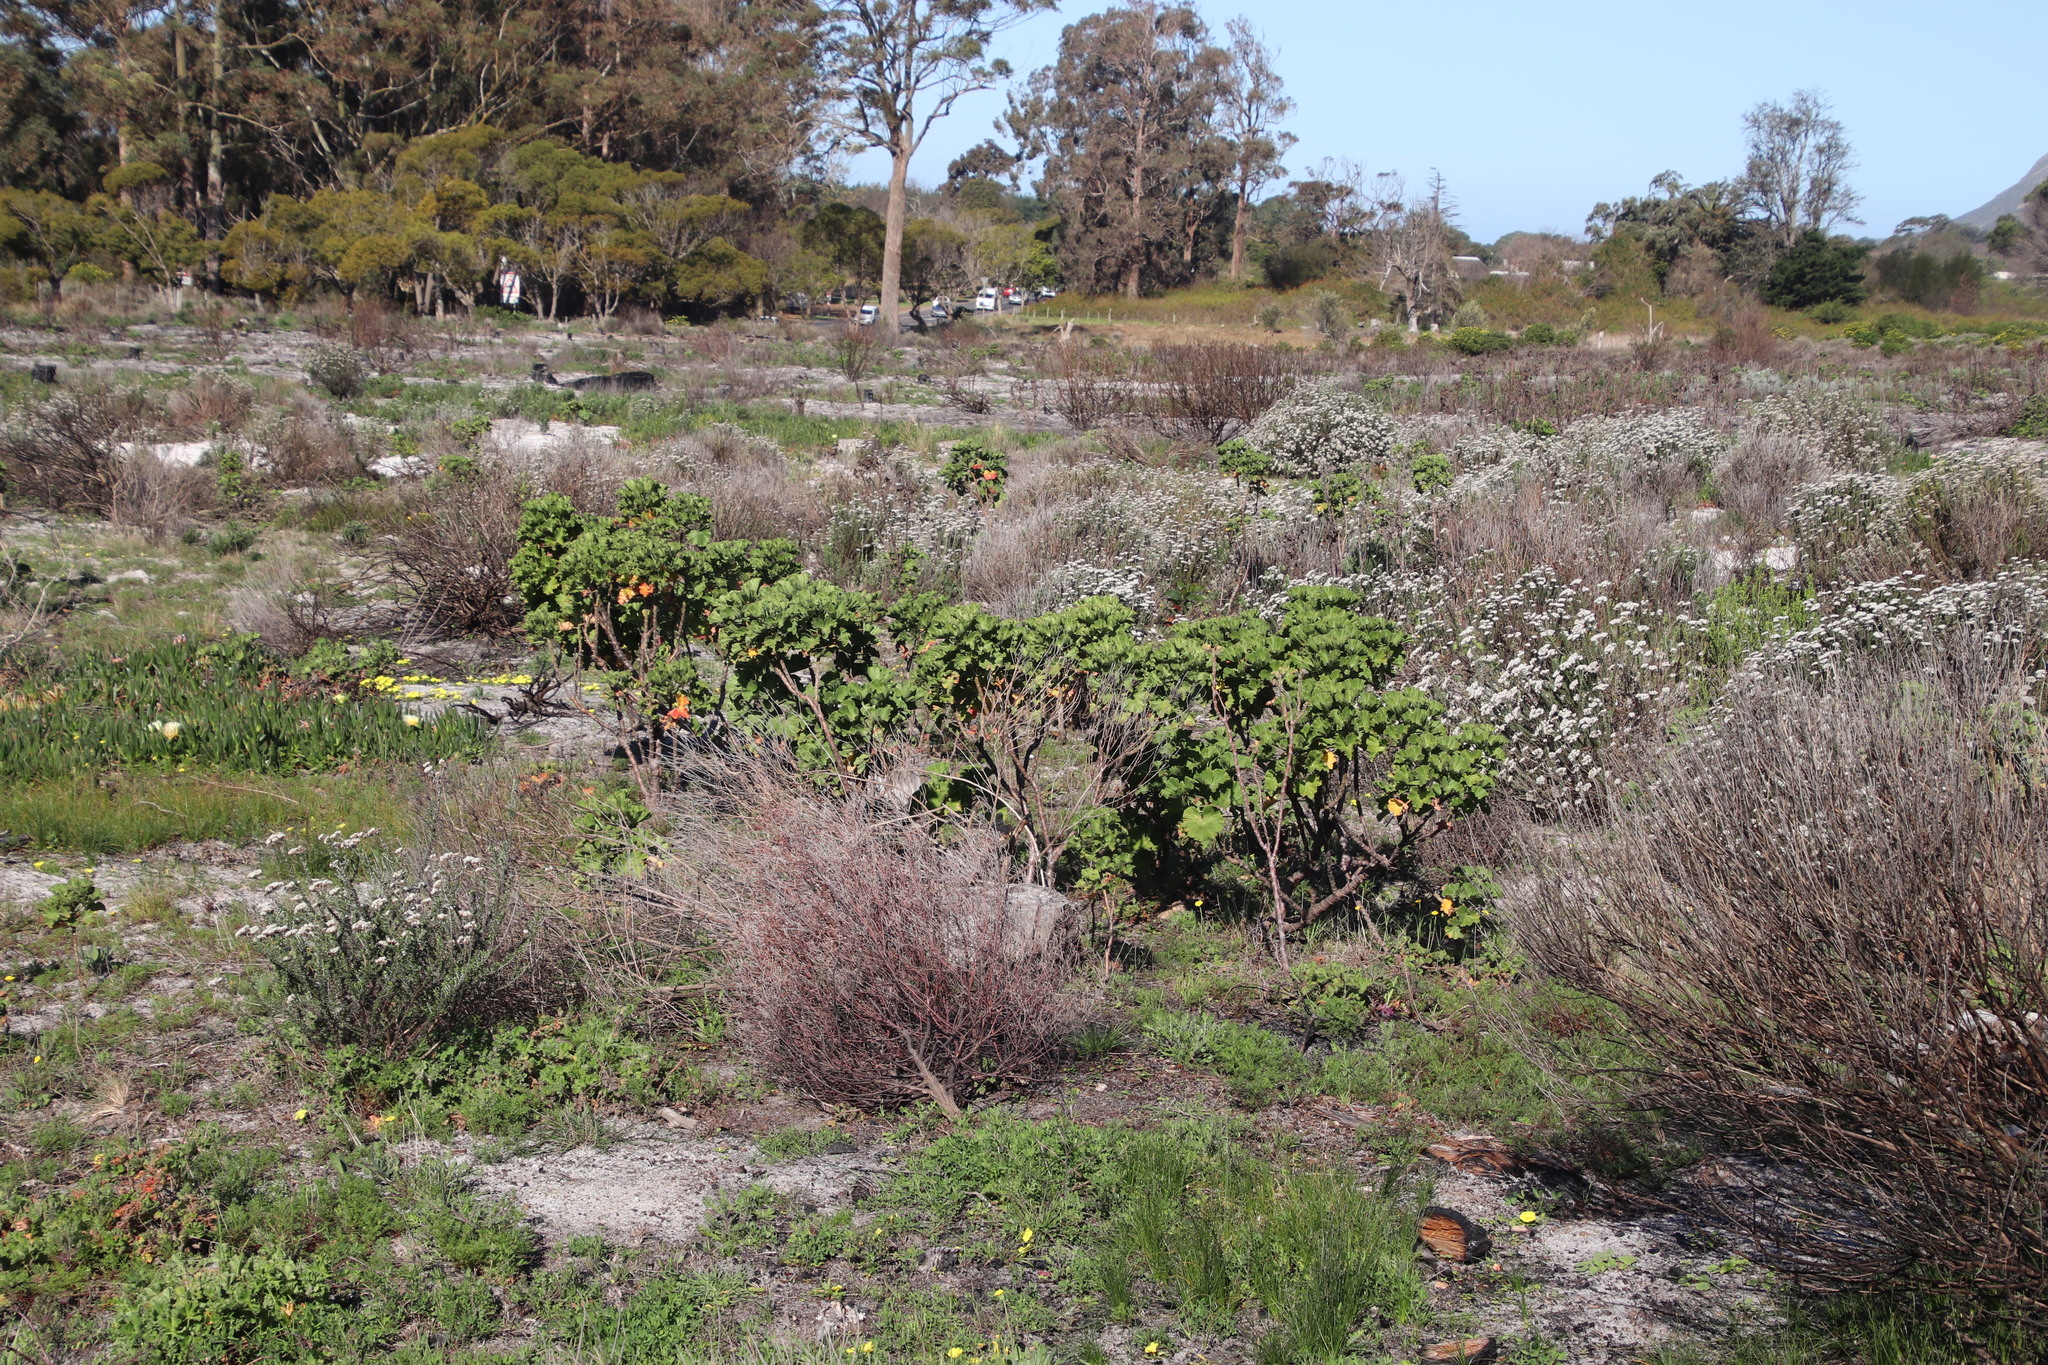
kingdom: Plantae
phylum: Tracheophyta
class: Magnoliopsida
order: Geraniales
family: Geraniaceae
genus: Pelargonium
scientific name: Pelargonium cucullatum
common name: Tree pelargonium
